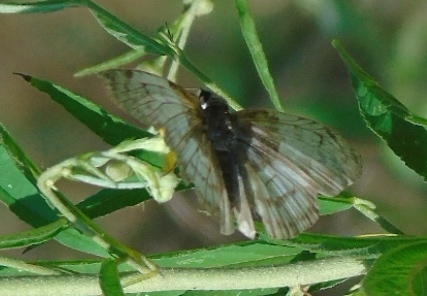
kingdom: Animalia
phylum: Arthropoda
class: Insecta
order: Lepidoptera
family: Hesperiidae
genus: Mylon
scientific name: Mylon pelopidas
